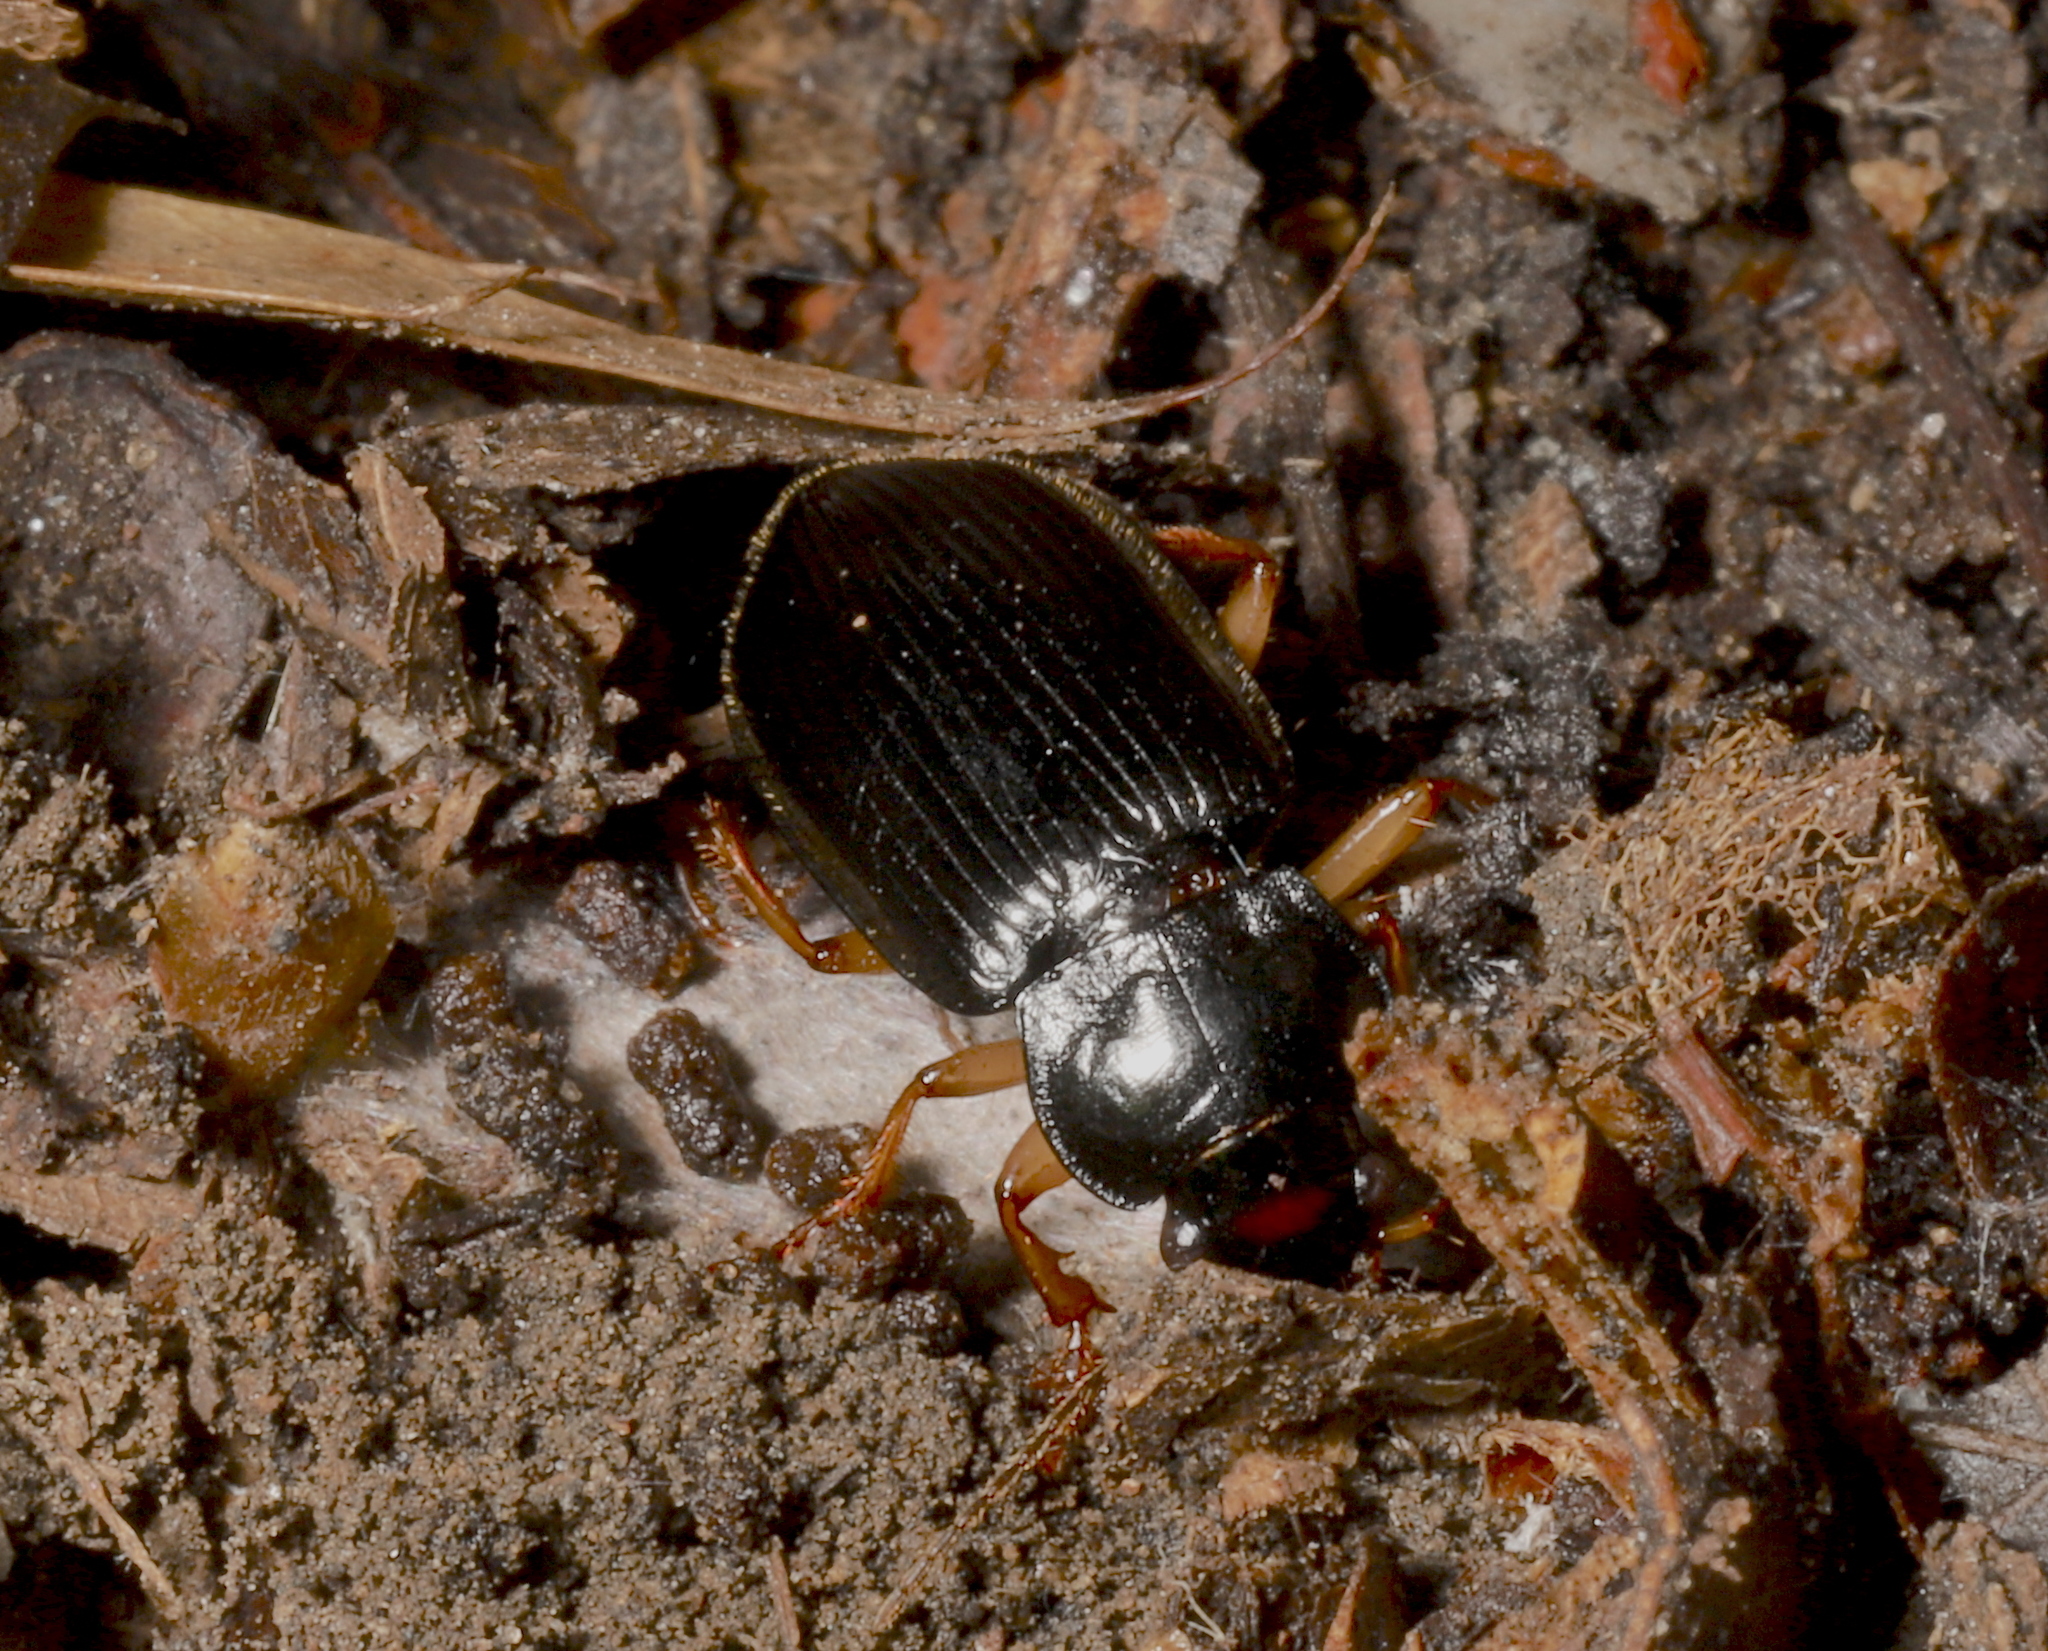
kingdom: Animalia
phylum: Arthropoda
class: Insecta
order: Coleoptera
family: Carabidae
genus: Anisodactylus
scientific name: Anisodactylus verticalis
